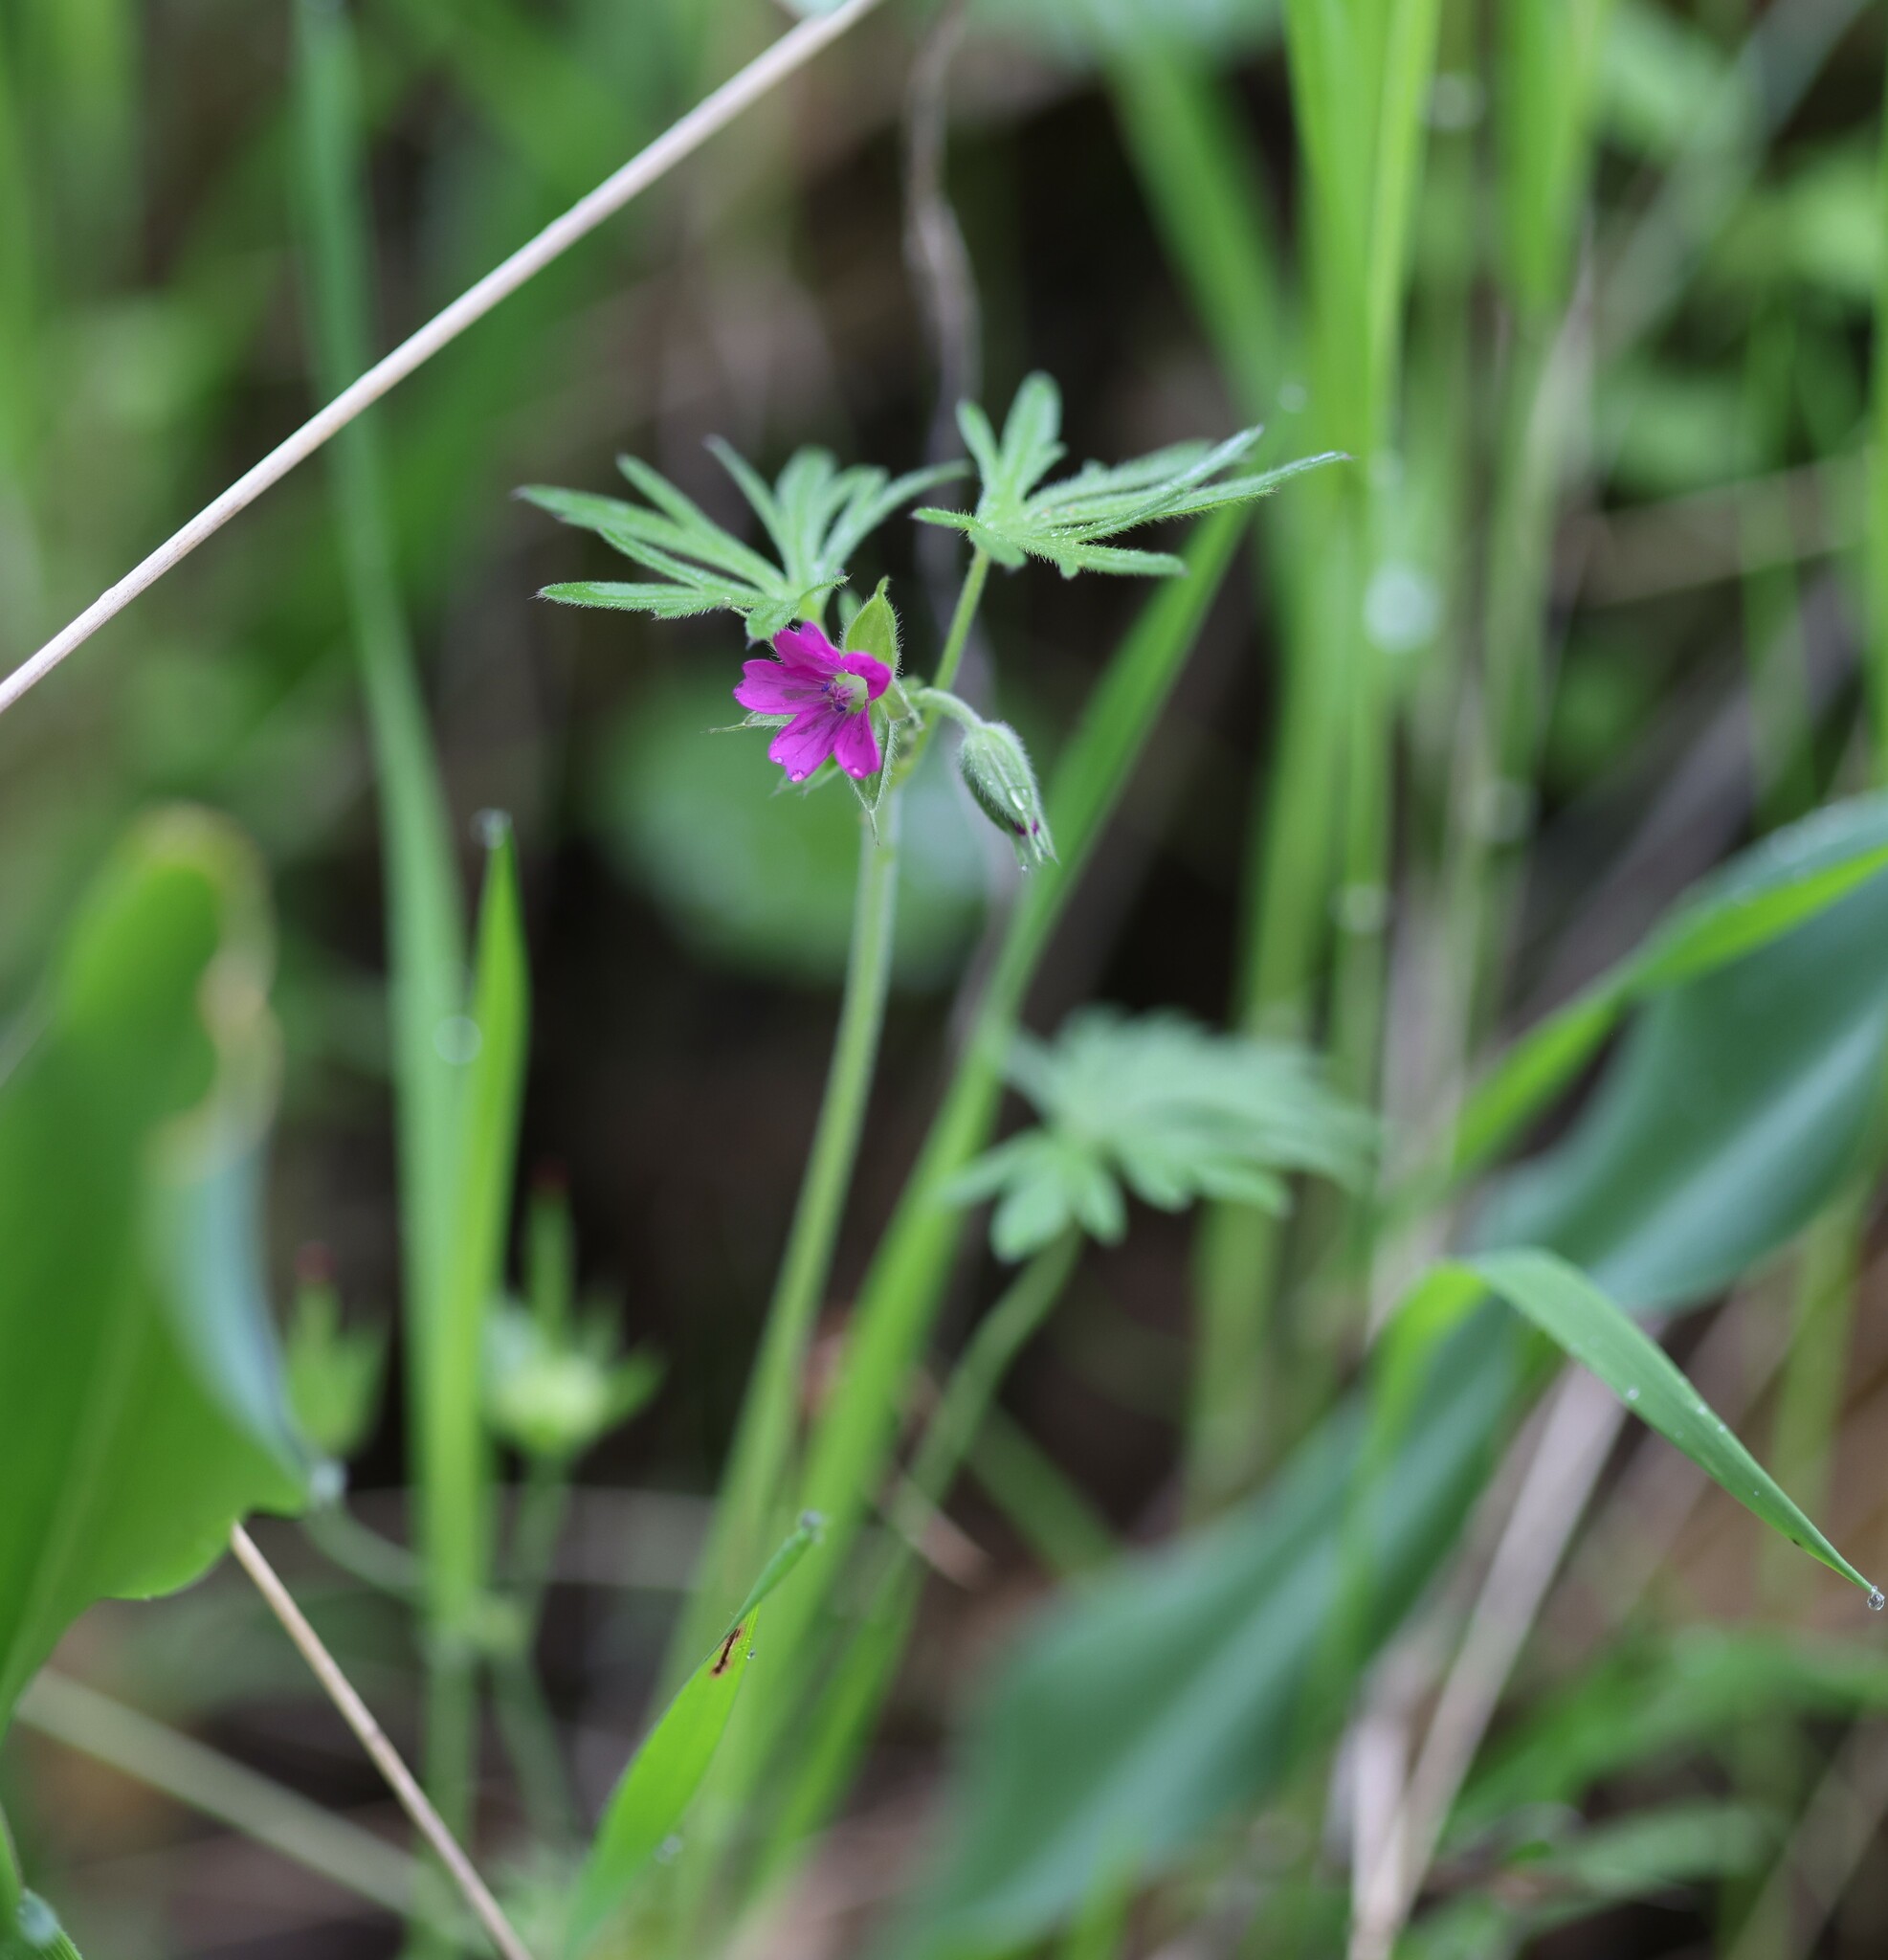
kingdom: Plantae
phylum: Tracheophyta
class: Magnoliopsida
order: Geraniales
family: Geraniaceae
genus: Geranium
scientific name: Geranium dissectum
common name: Cut-leaved crane's-bill
